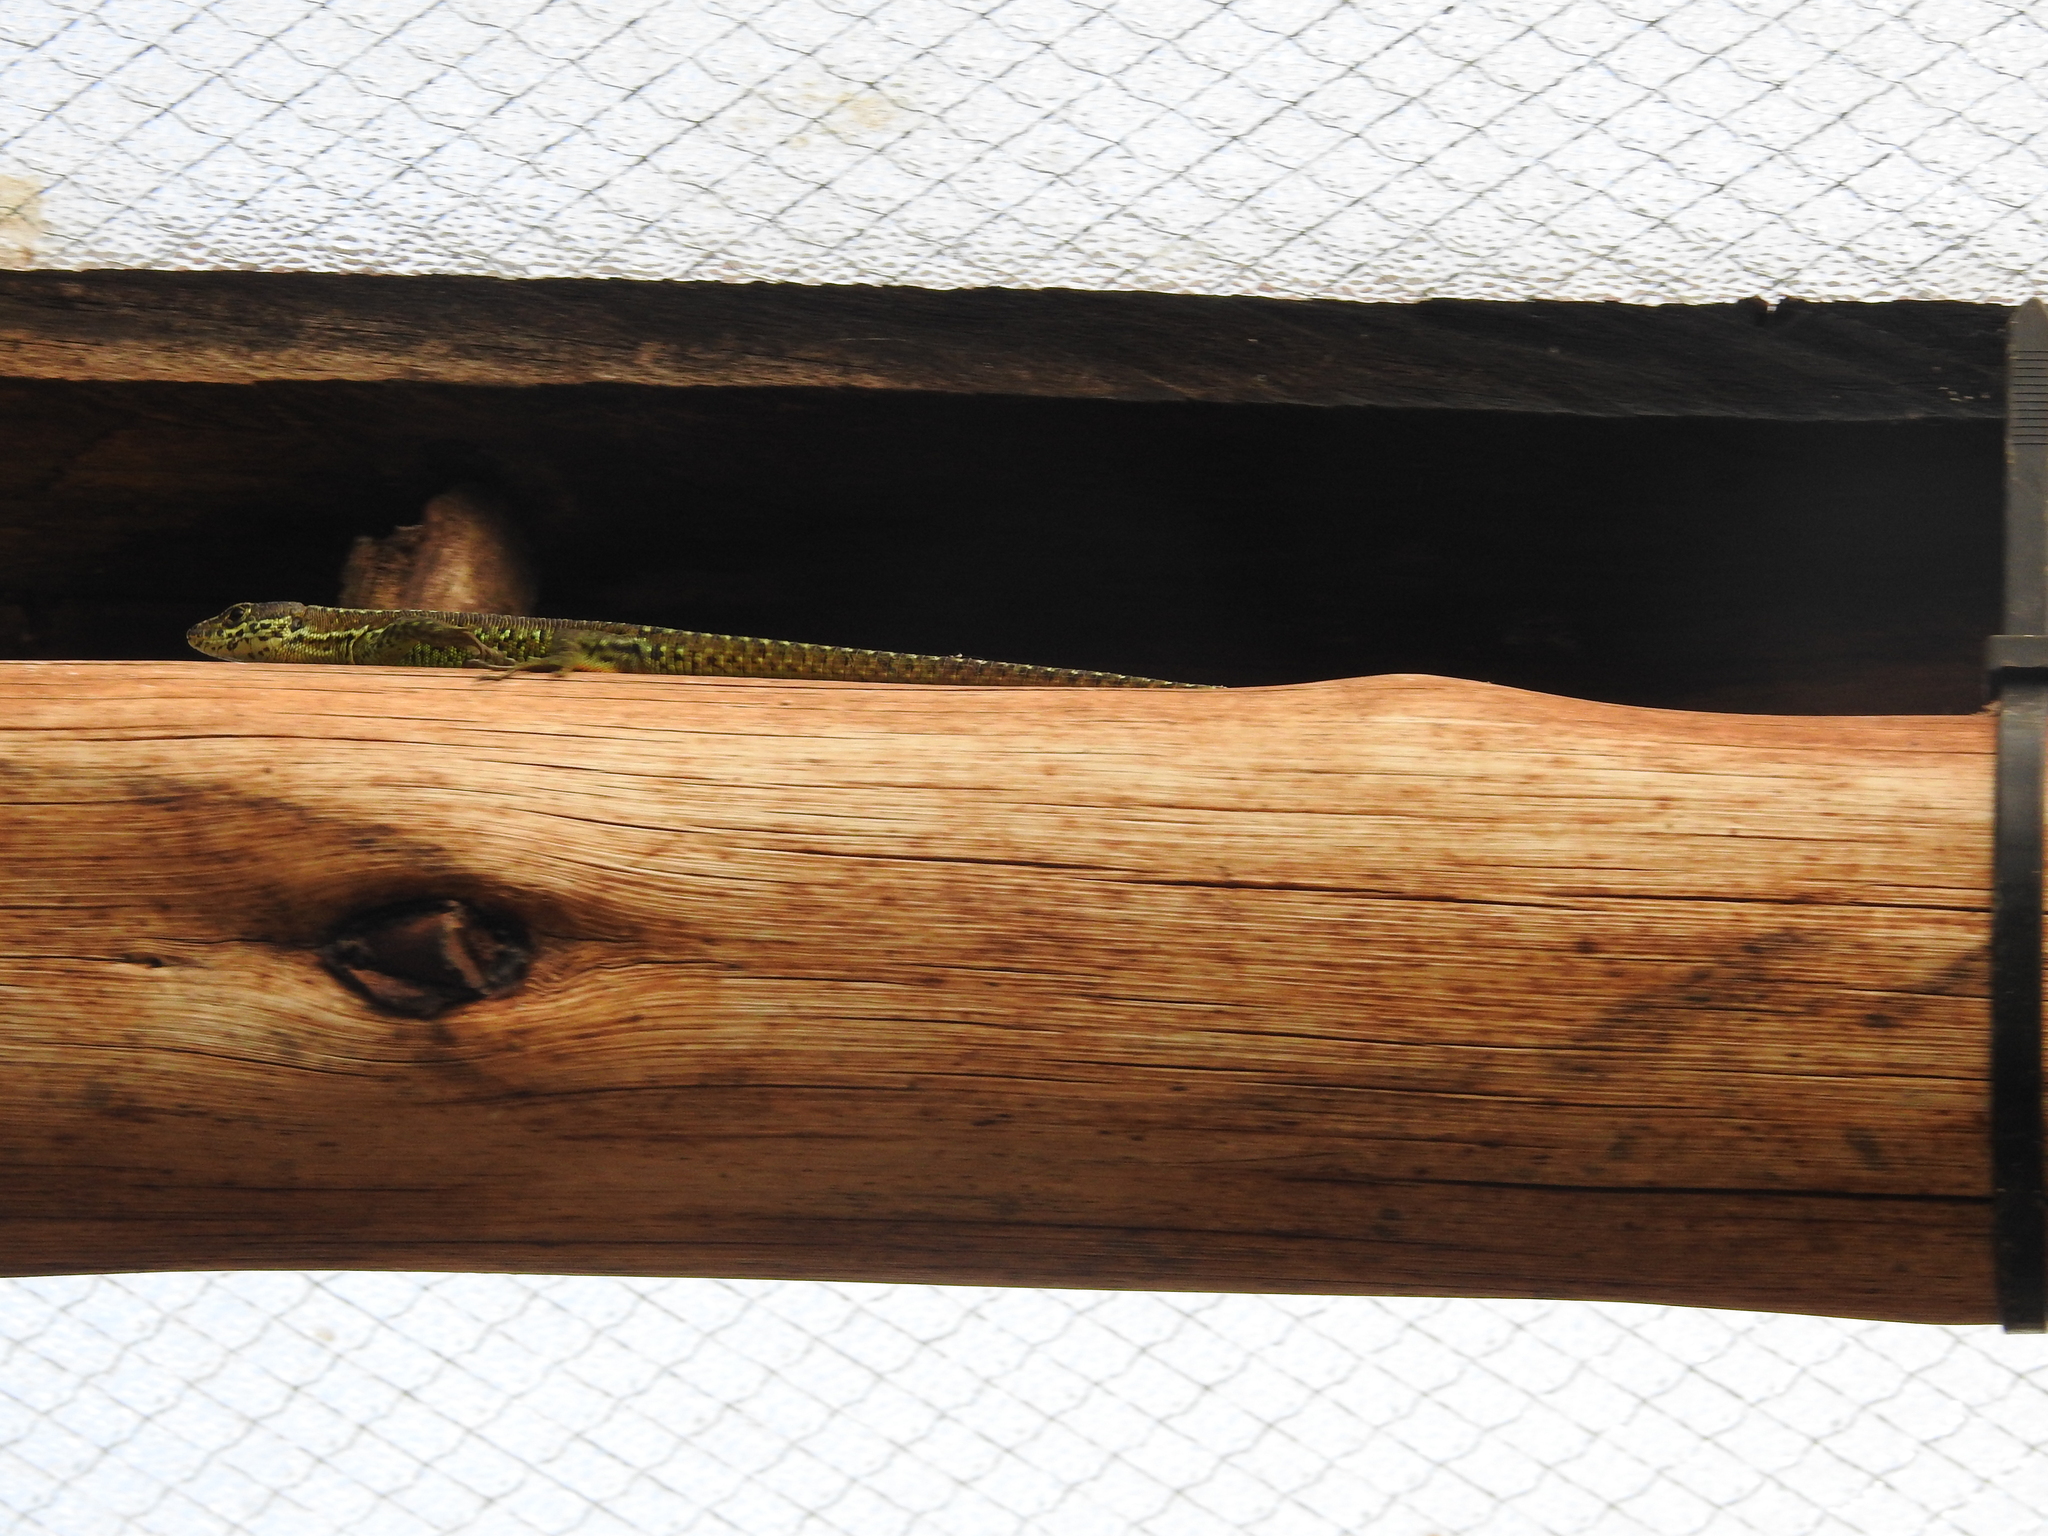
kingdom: Animalia
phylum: Chordata
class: Squamata
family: Lacertidae
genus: Adolfus
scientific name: Adolfus kibonotensis
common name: Jackson’s forest lizard
